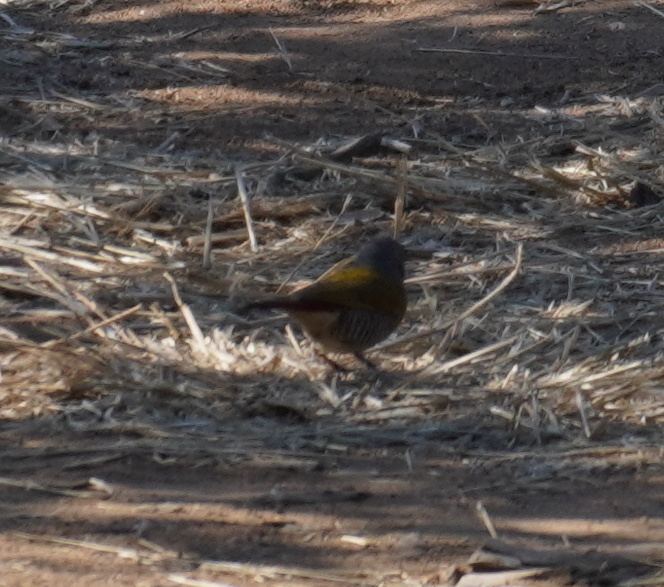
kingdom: Animalia
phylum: Chordata
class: Aves
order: Passeriformes
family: Estrildidae
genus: Pytilia
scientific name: Pytilia melba
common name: Green-winged pytilia
